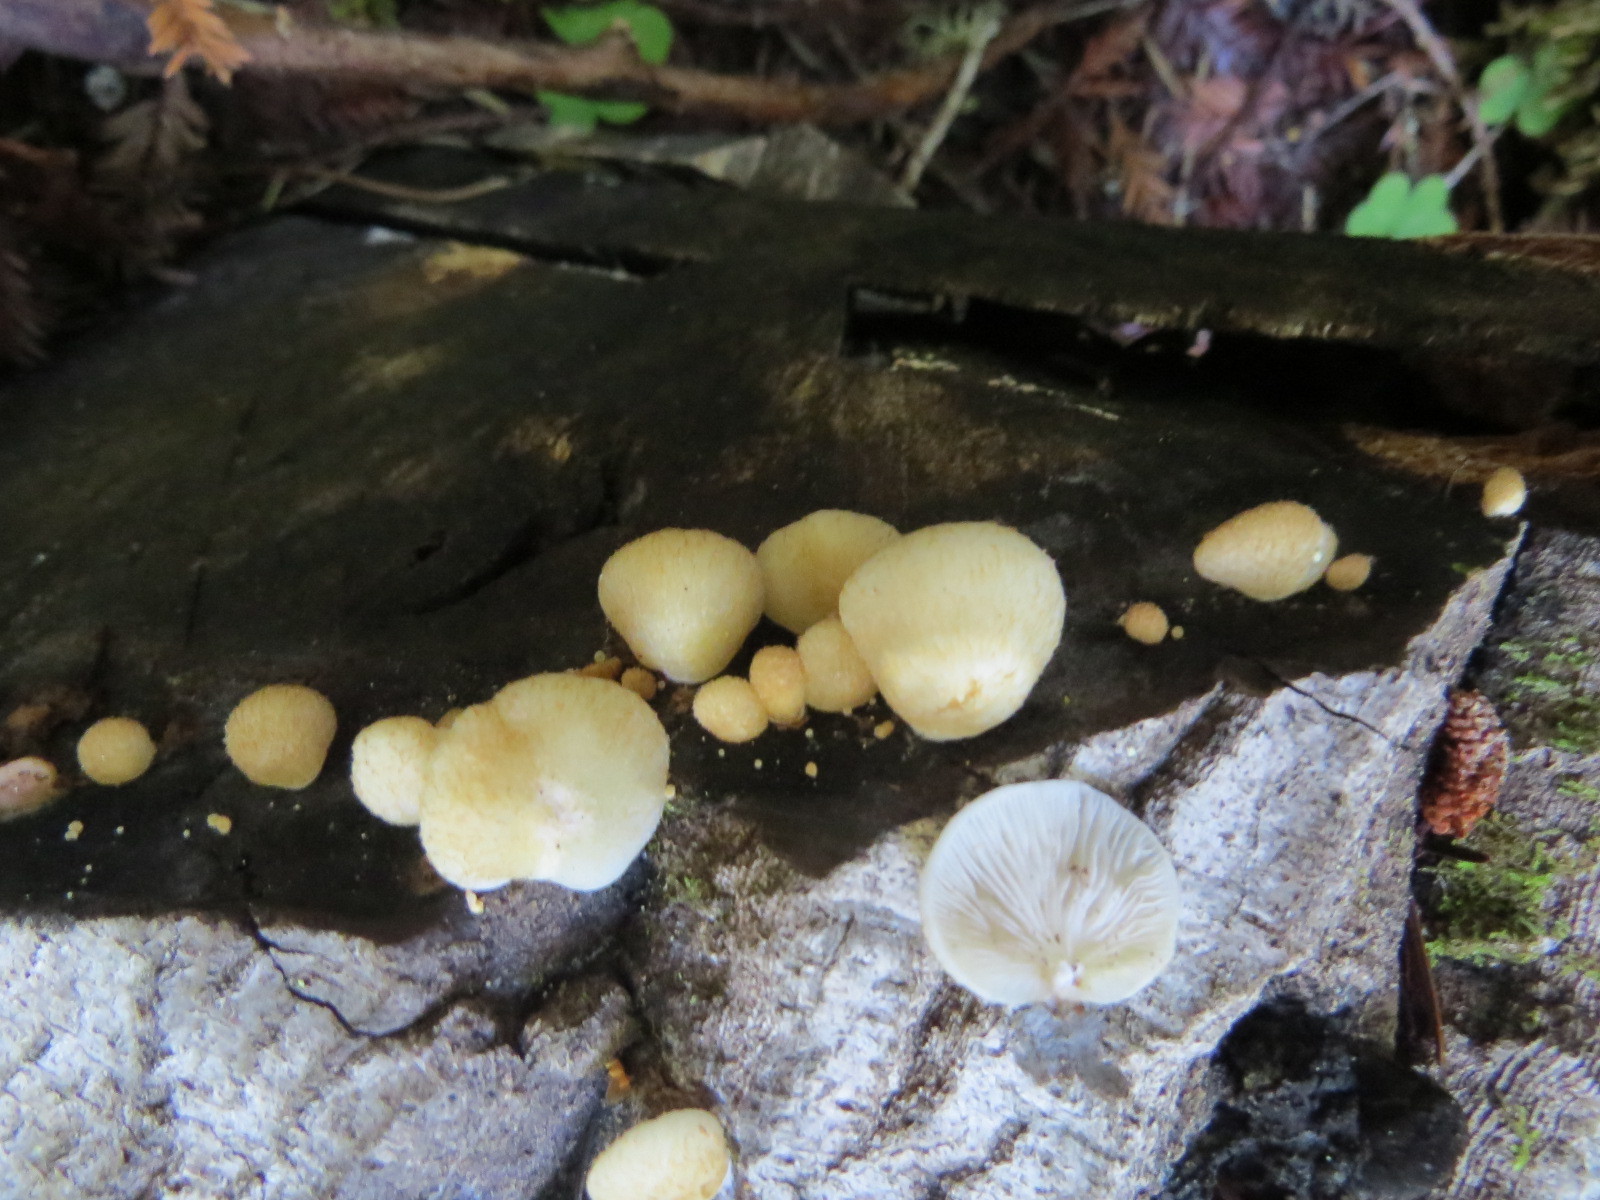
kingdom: Fungi
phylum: Basidiomycota
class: Agaricomycetes
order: Agaricales
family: Crepidotaceae
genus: Crepidotus
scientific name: Crepidotus mollis
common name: Peeling oysterling
